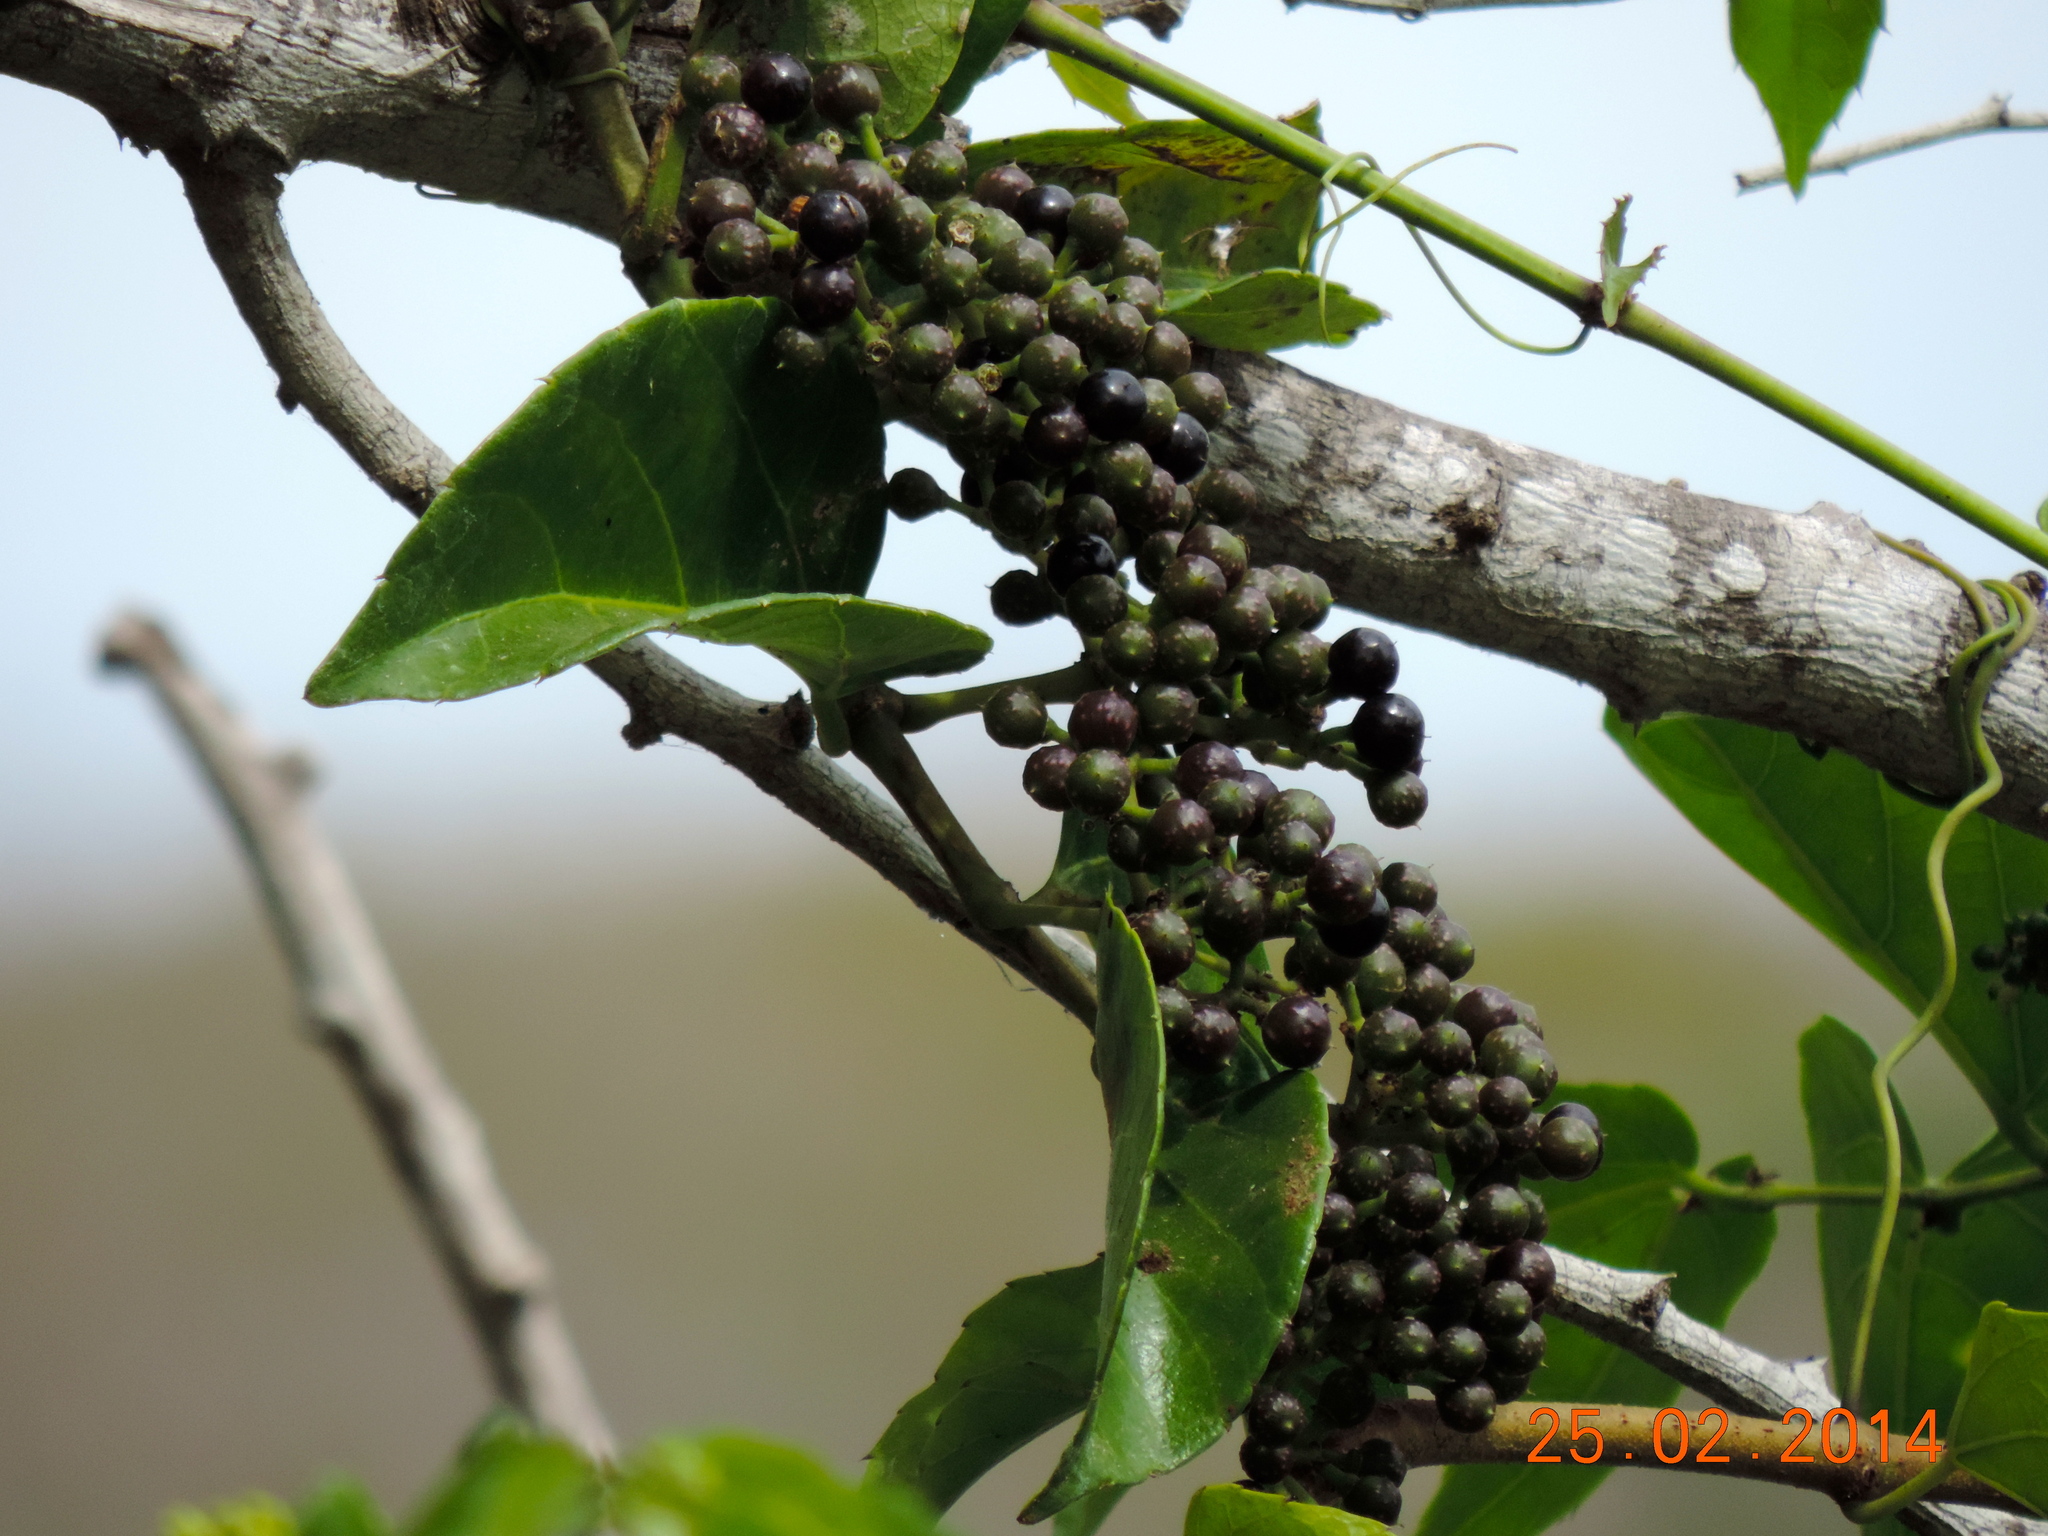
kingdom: Plantae
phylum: Tracheophyta
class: Magnoliopsida
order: Vitales
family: Vitaceae
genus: Cissus
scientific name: Cissus verticillata
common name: Princess vine
